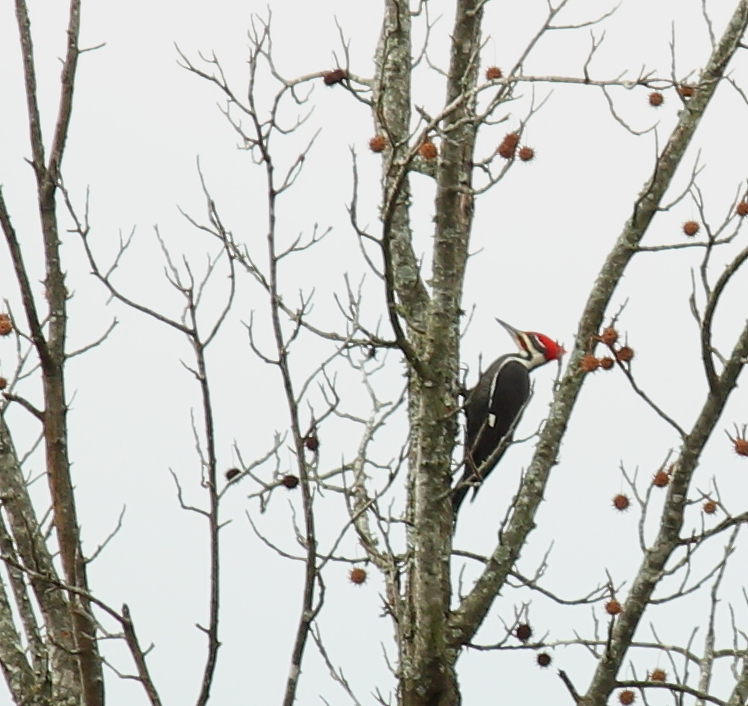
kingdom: Animalia
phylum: Chordata
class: Aves
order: Piciformes
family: Picidae
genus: Dryocopus
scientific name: Dryocopus pileatus
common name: Pileated woodpecker
